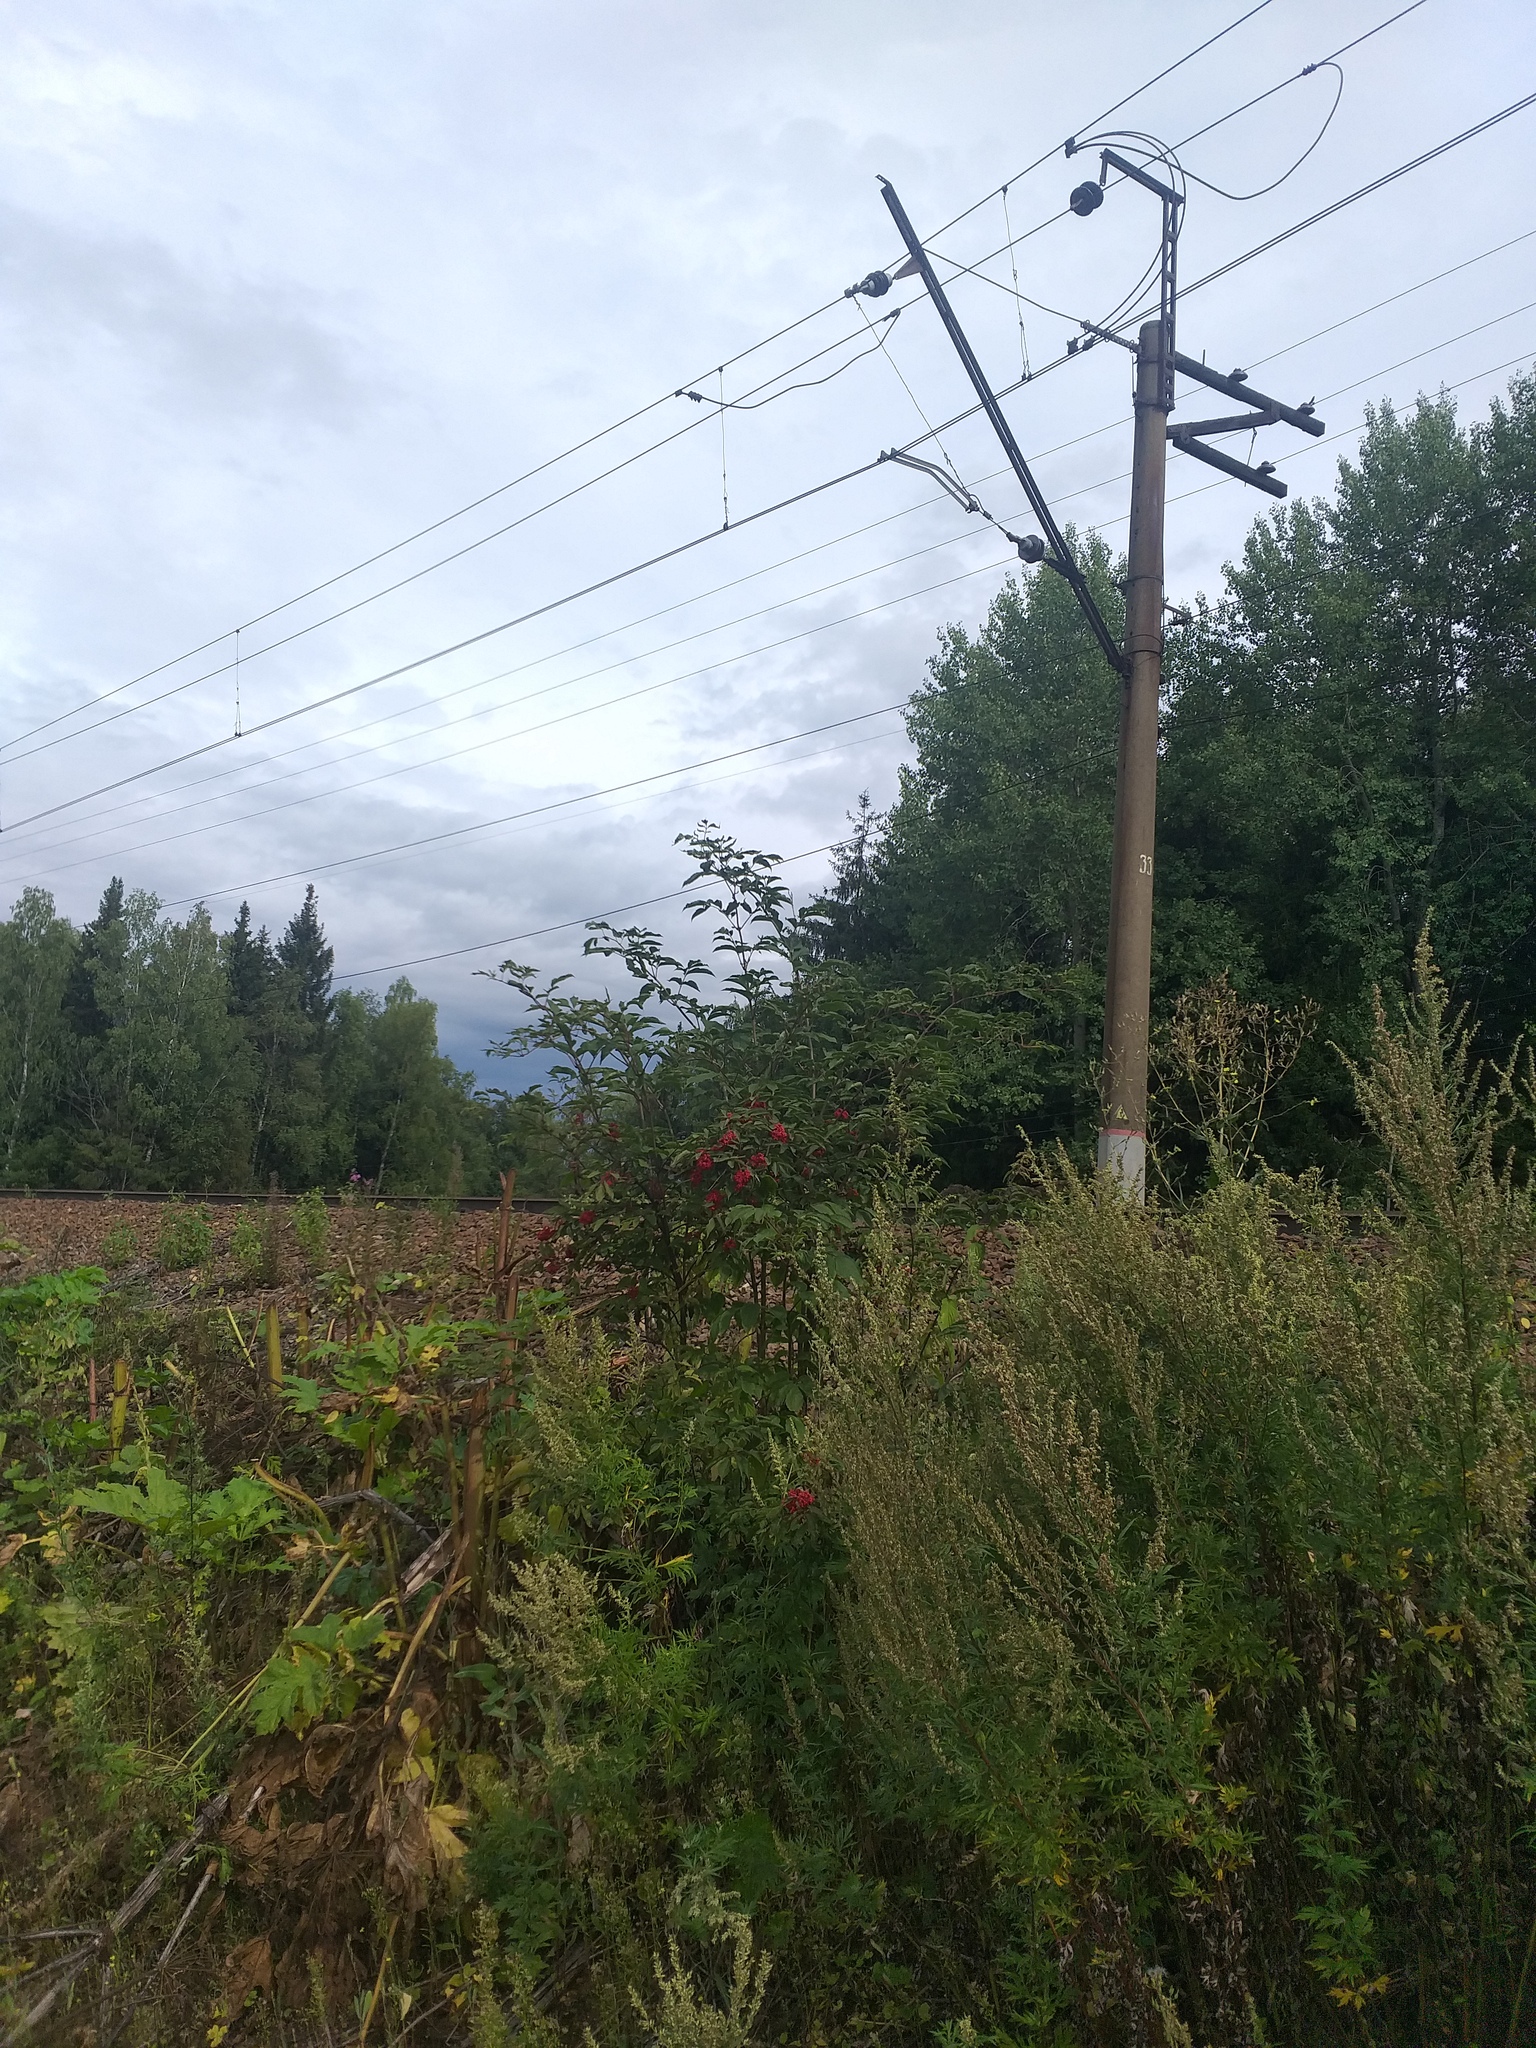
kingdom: Plantae
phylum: Tracheophyta
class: Magnoliopsida
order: Dipsacales
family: Viburnaceae
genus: Sambucus
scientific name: Sambucus racemosa
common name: Red-berried elder
